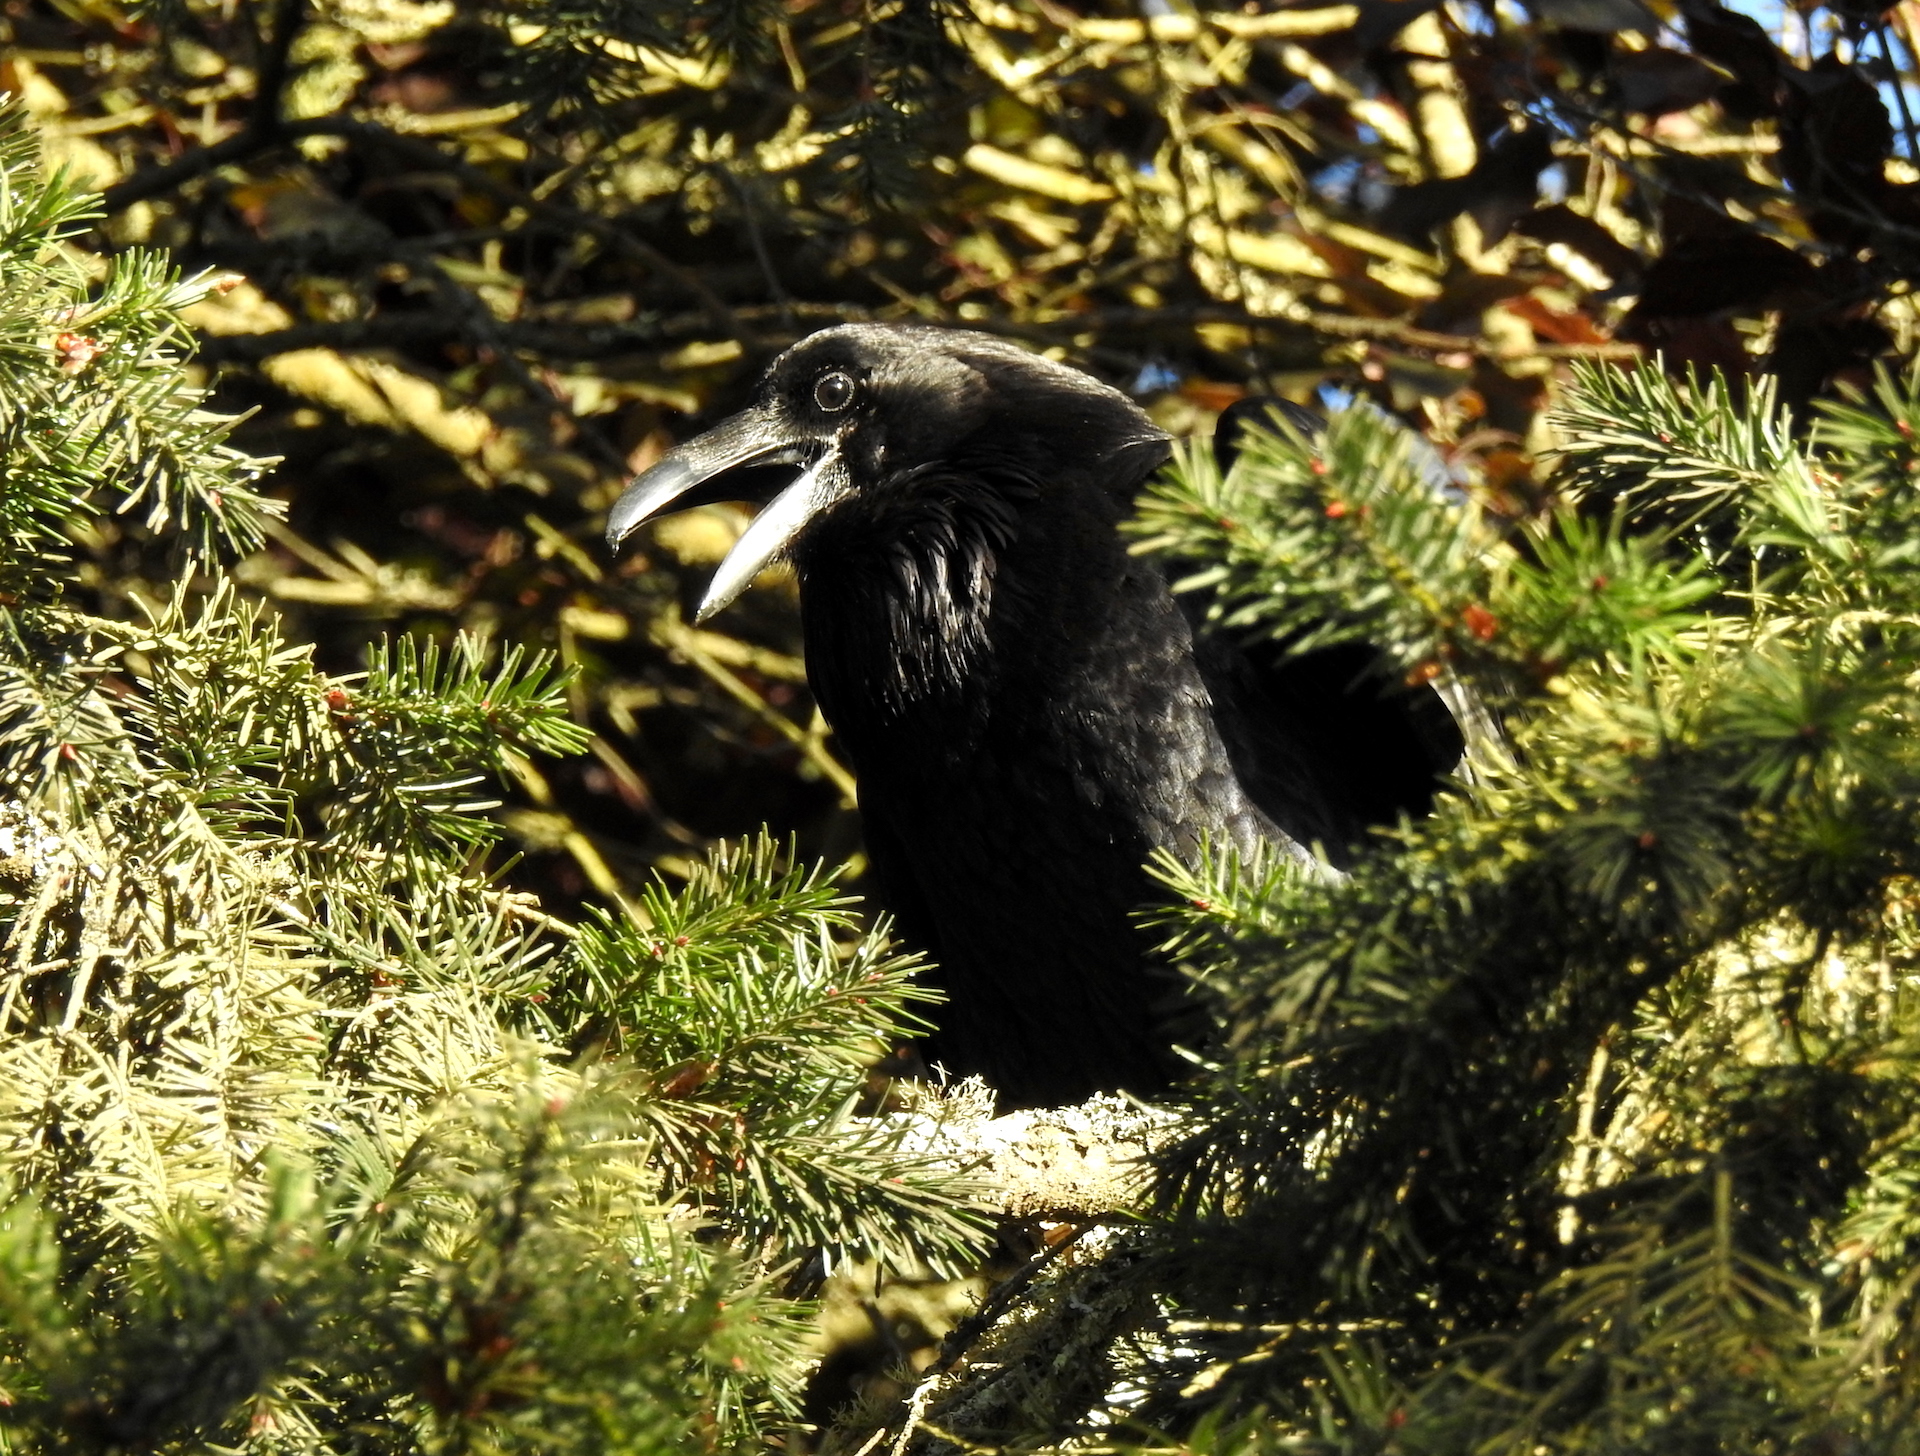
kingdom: Animalia
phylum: Chordata
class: Aves
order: Passeriformes
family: Corvidae
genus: Corvus
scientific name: Corvus corax
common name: Common raven
